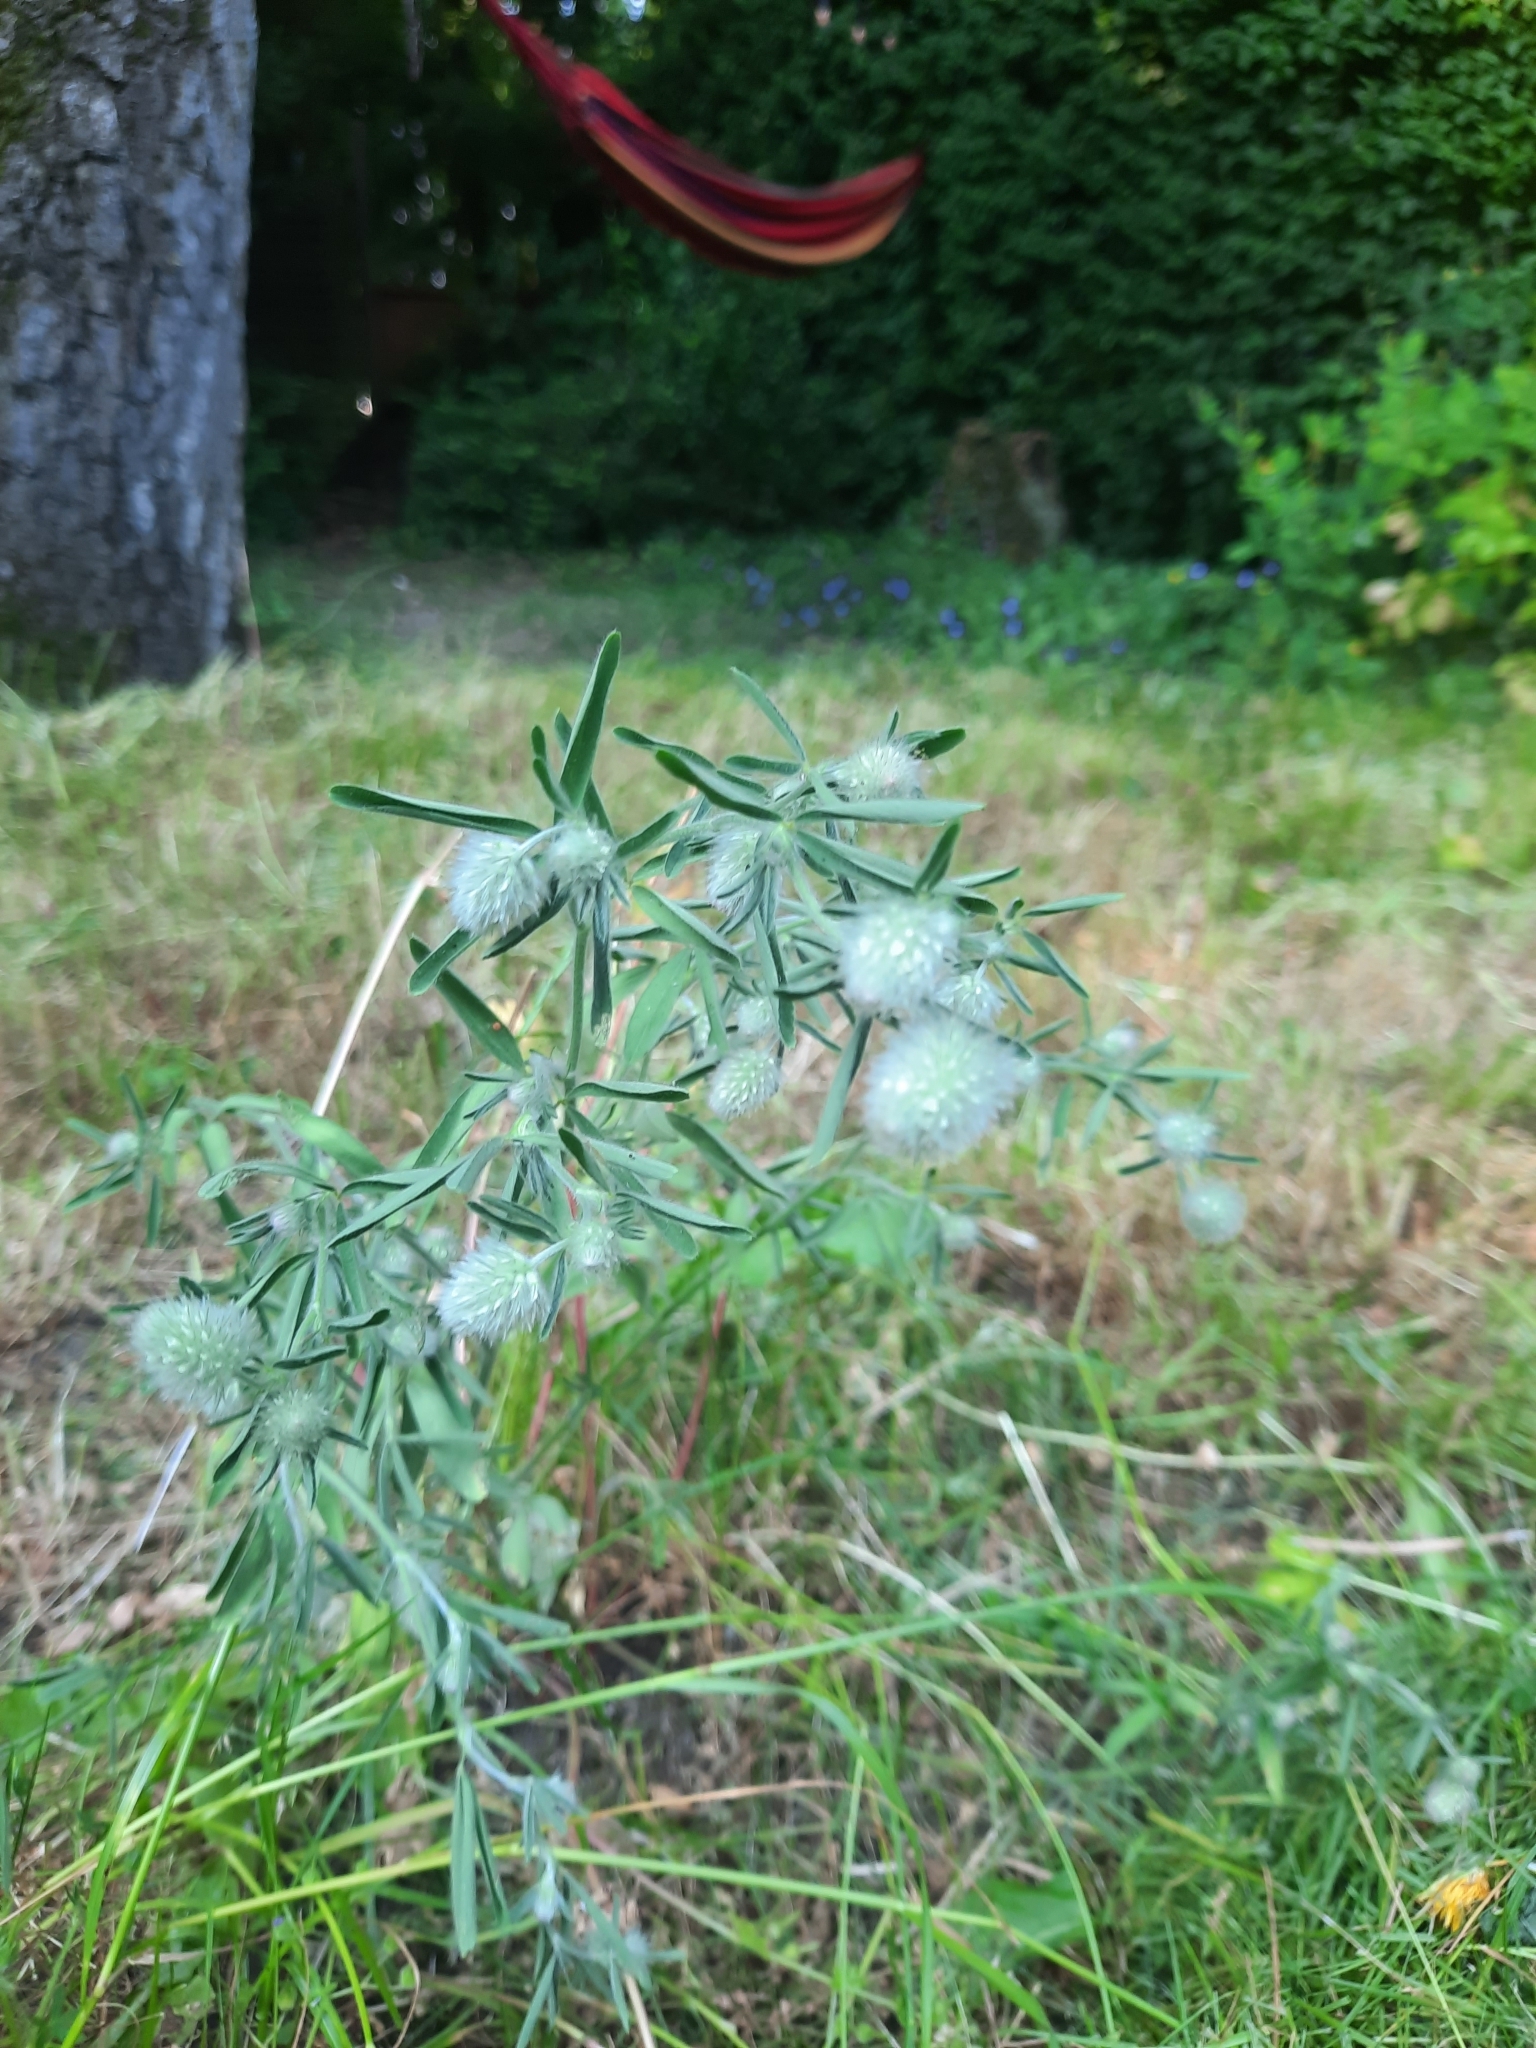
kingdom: Plantae
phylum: Tracheophyta
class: Magnoliopsida
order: Fabales
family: Fabaceae
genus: Trifolium
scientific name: Trifolium arvense
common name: Hare's-foot clover
